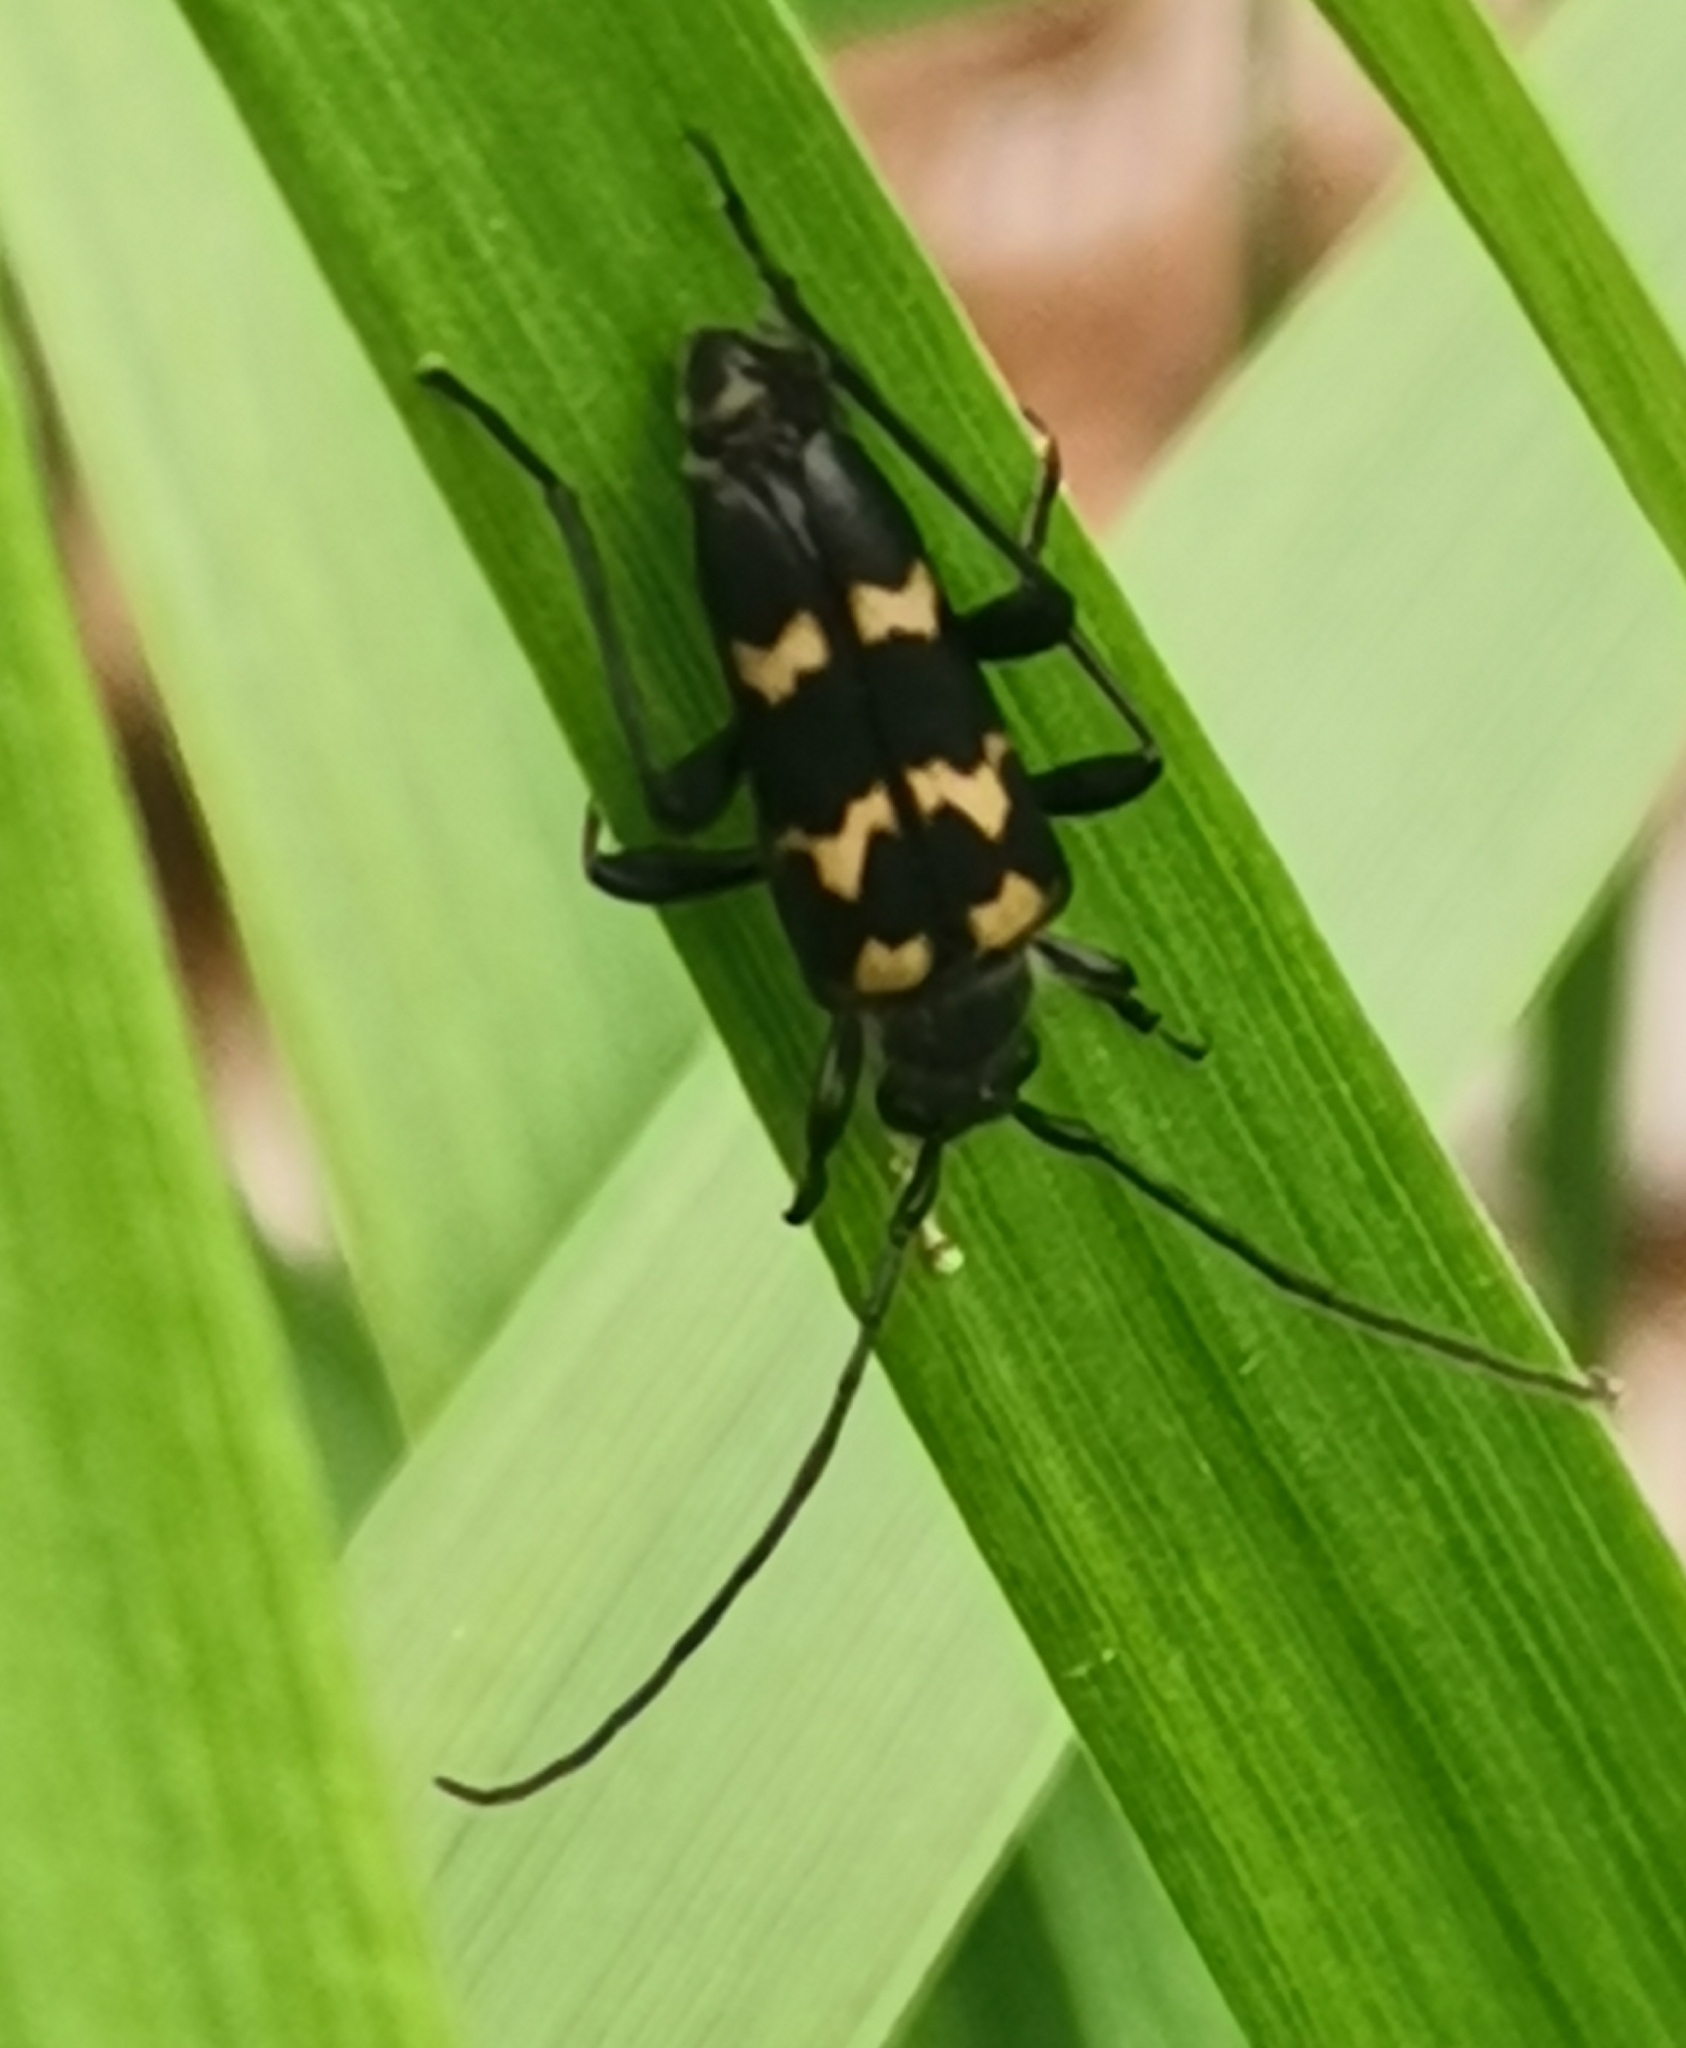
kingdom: Animalia
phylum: Arthropoda
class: Insecta
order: Coleoptera
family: Cerambycidae
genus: Judolia
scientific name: Judolia sexmaculata
